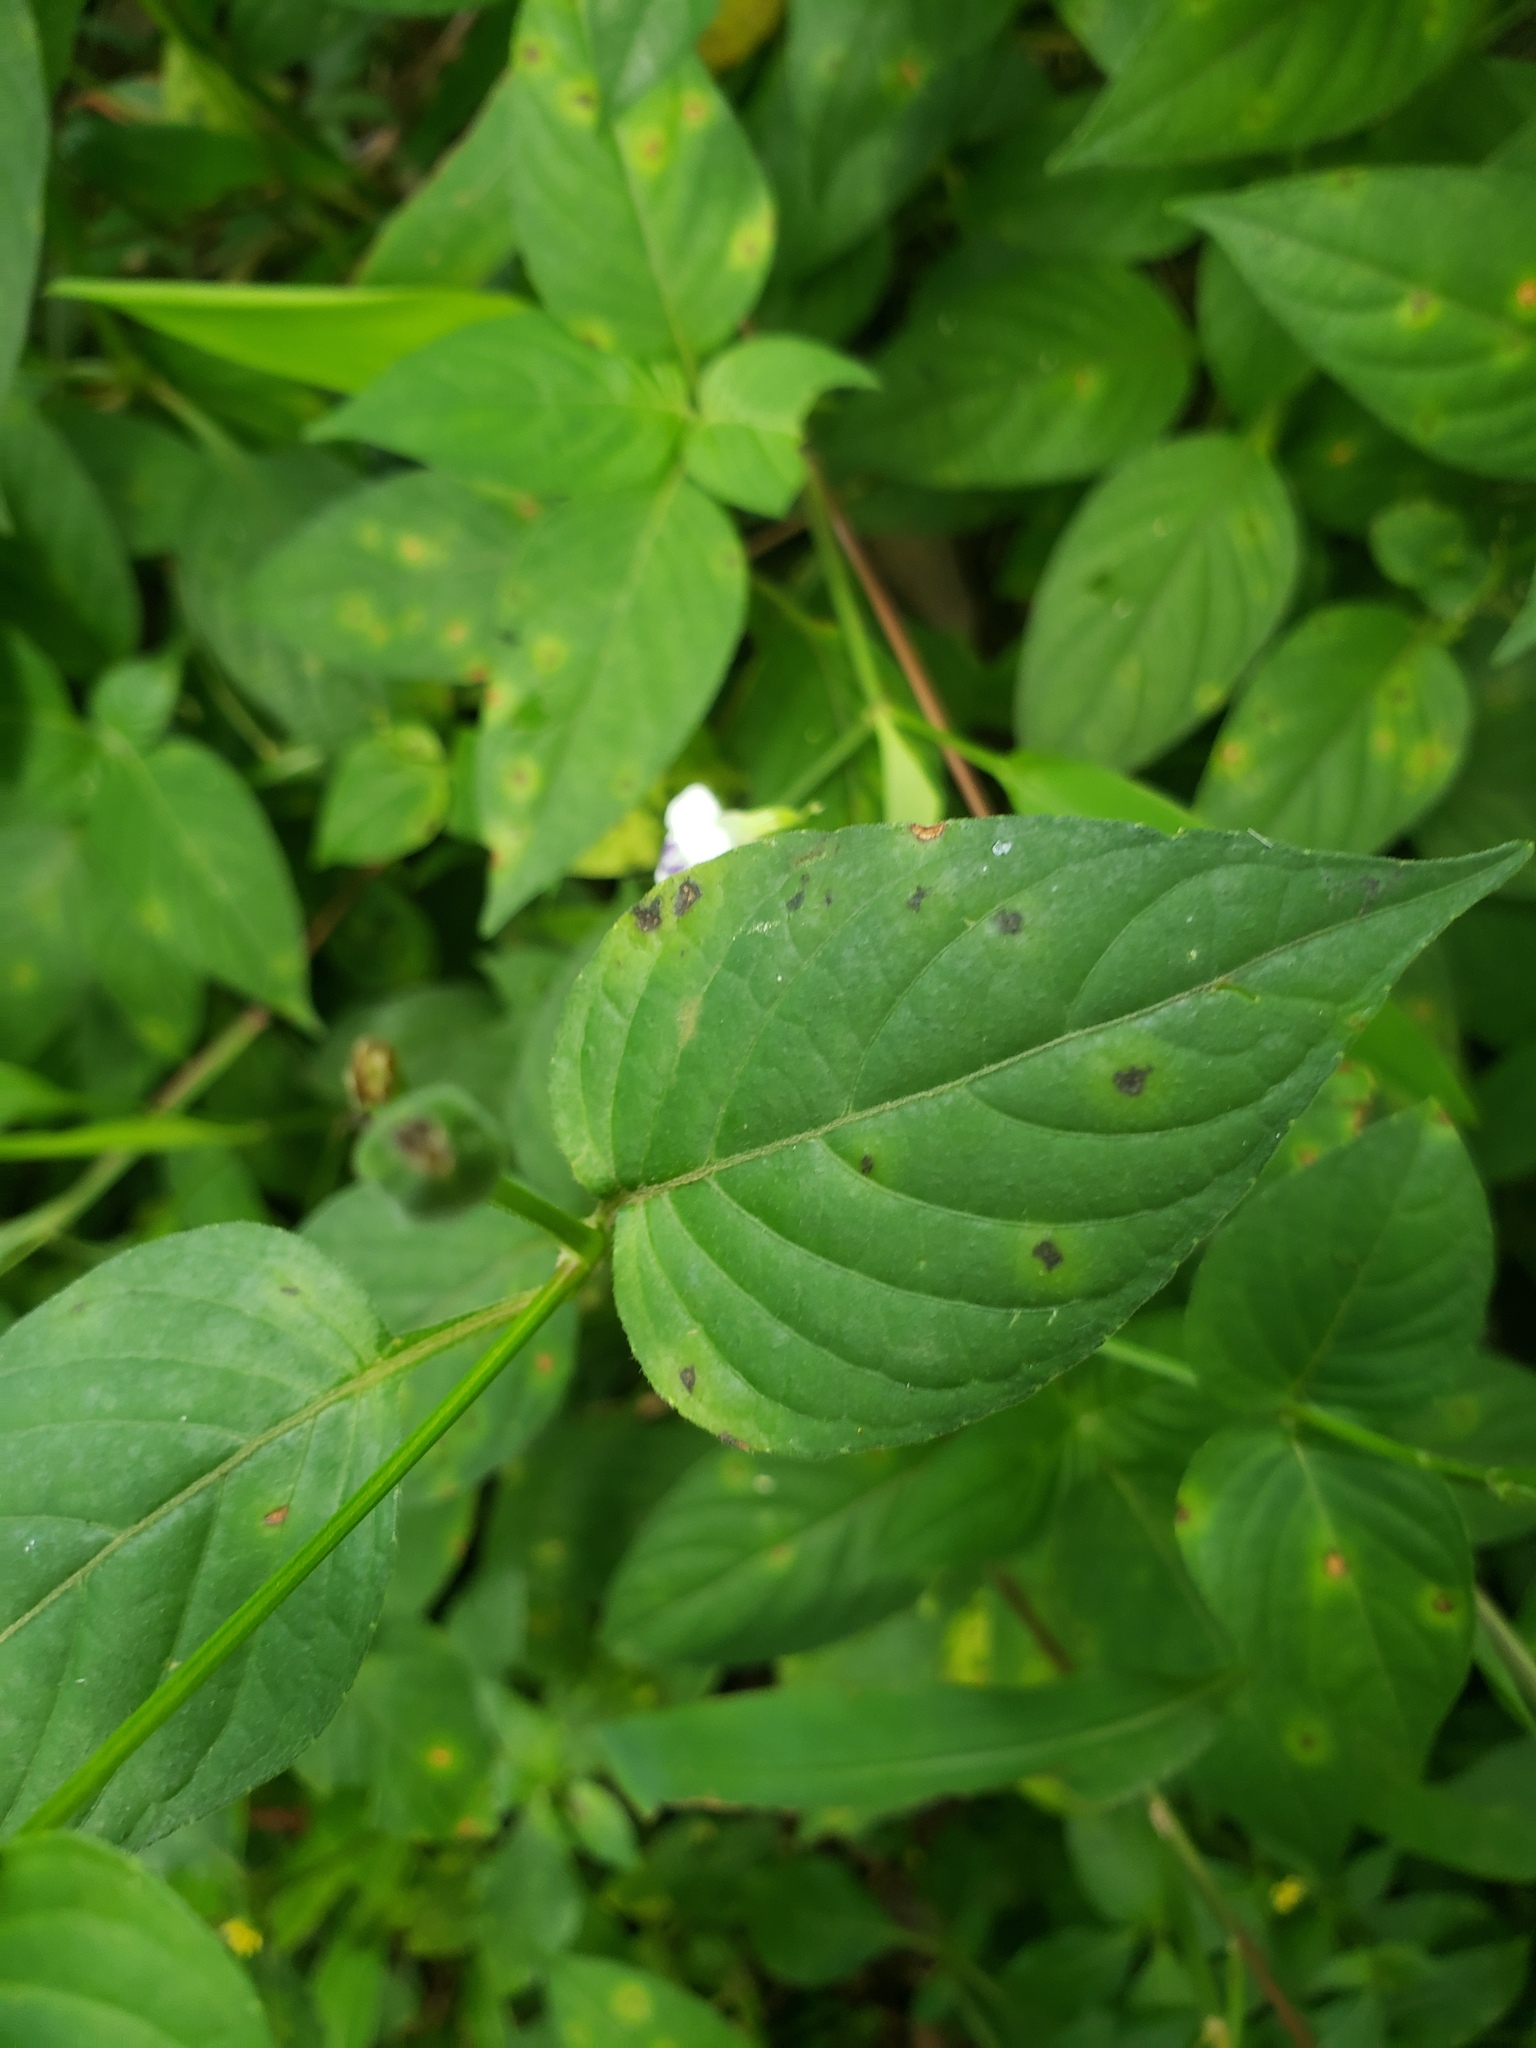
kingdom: Plantae
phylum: Tracheophyta
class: Magnoliopsida
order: Lamiales
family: Acanthaceae
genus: Asystasia
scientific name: Asystasia intrusa
